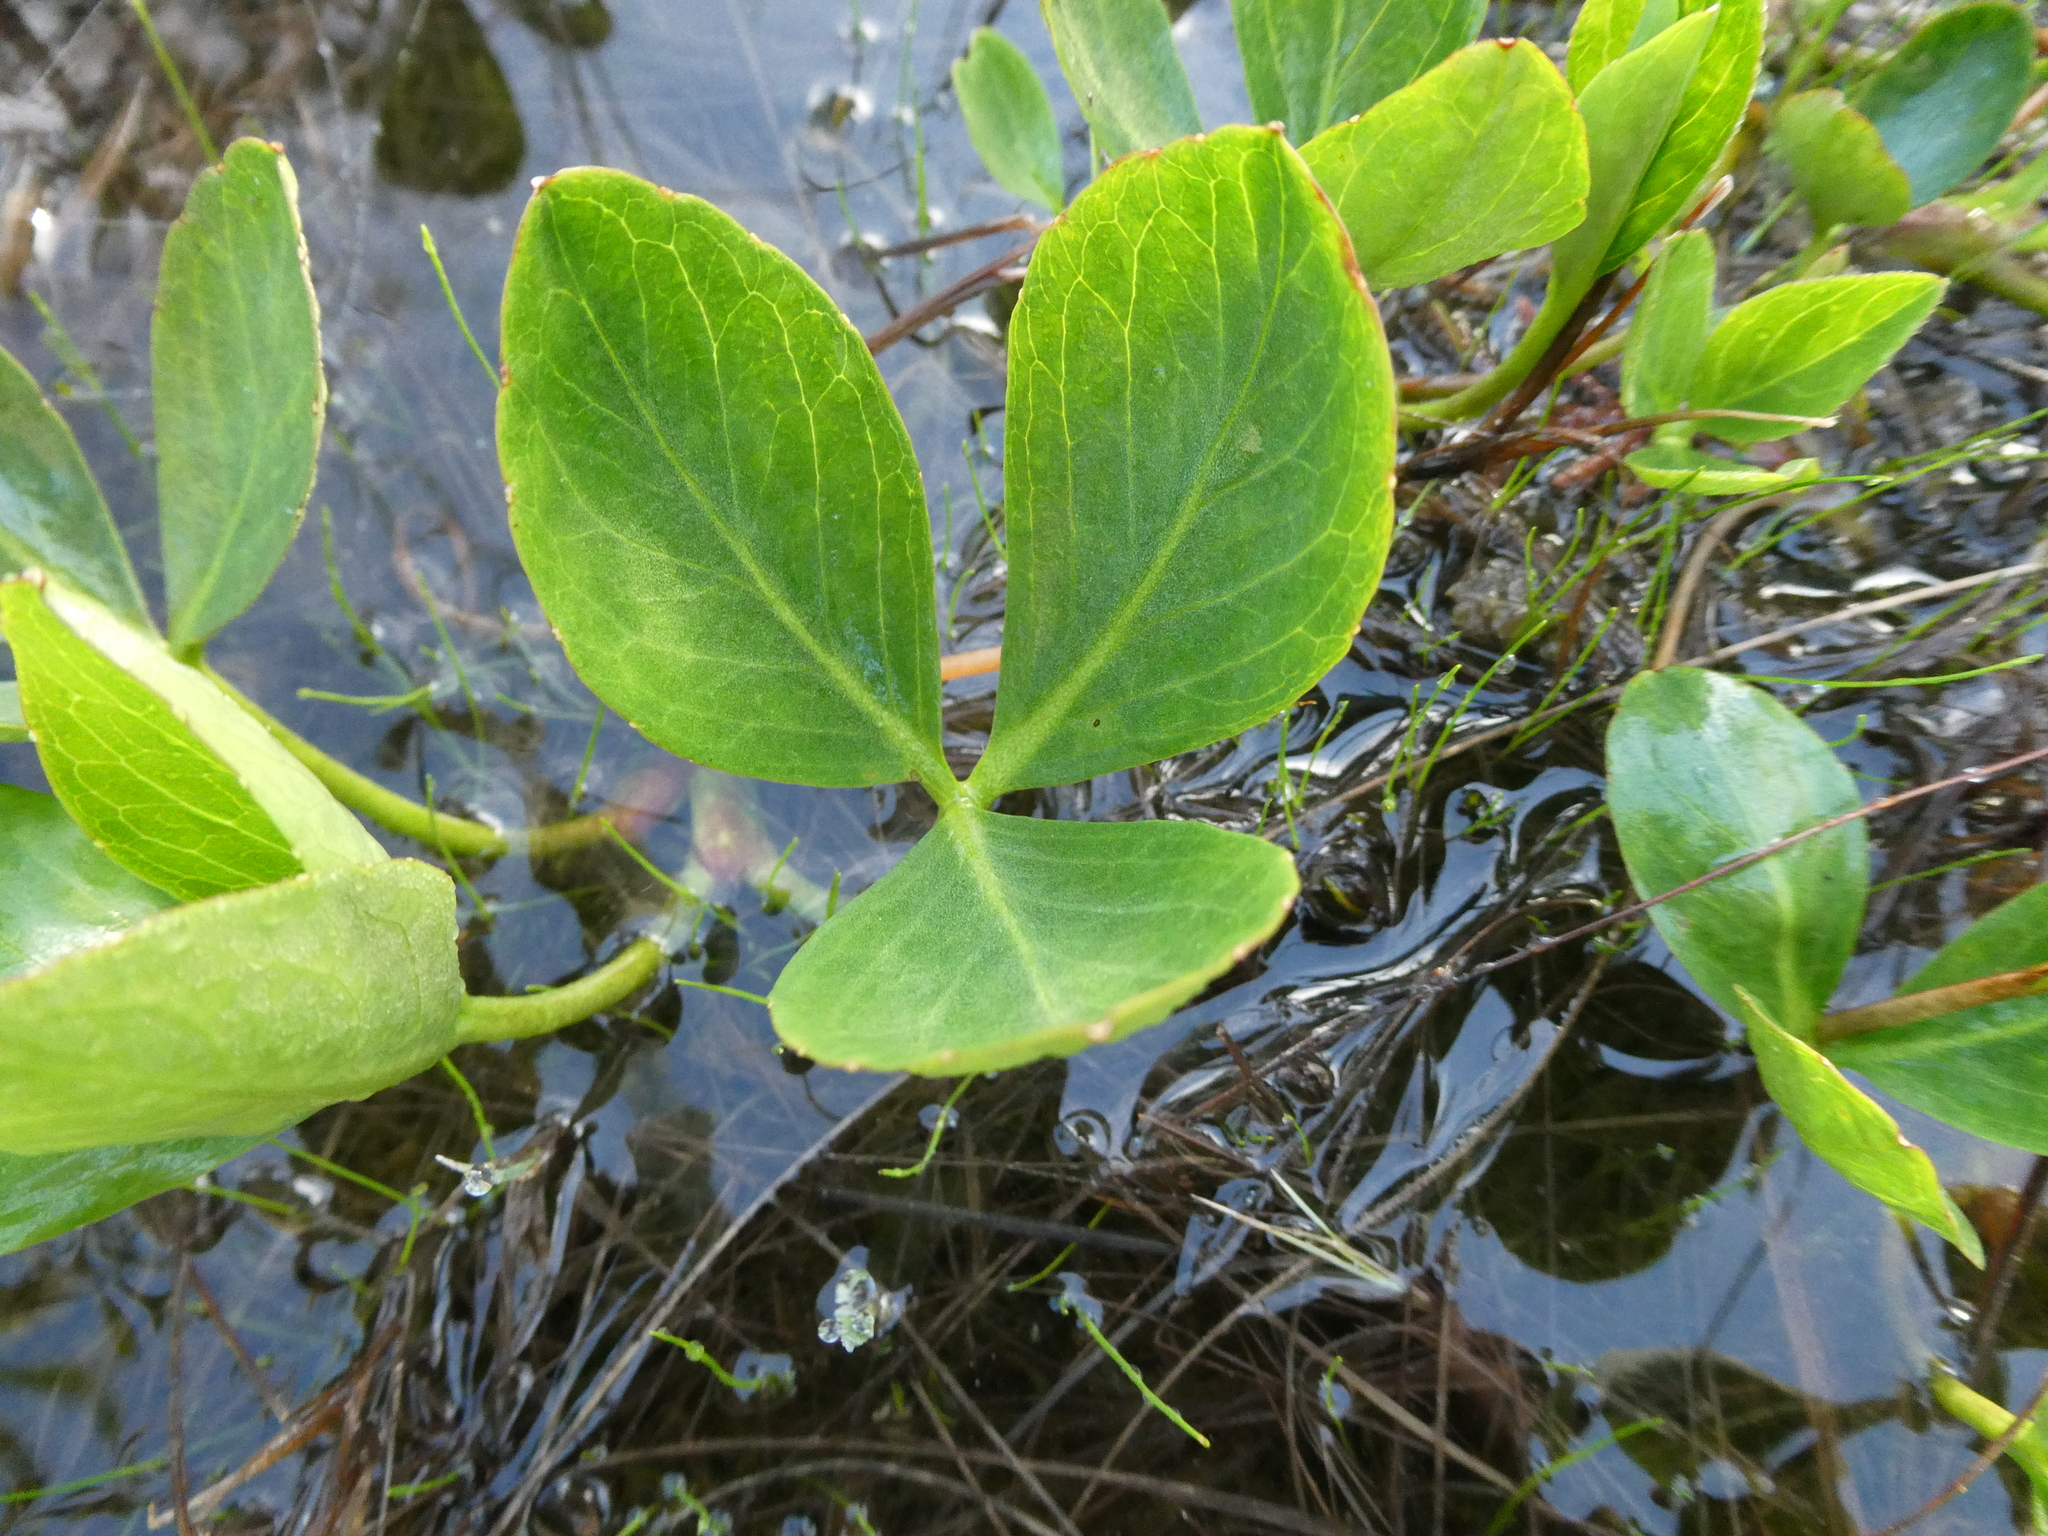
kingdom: Plantae
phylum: Tracheophyta
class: Magnoliopsida
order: Asterales
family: Menyanthaceae
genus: Menyanthes
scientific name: Menyanthes trifoliata
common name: Bogbean
